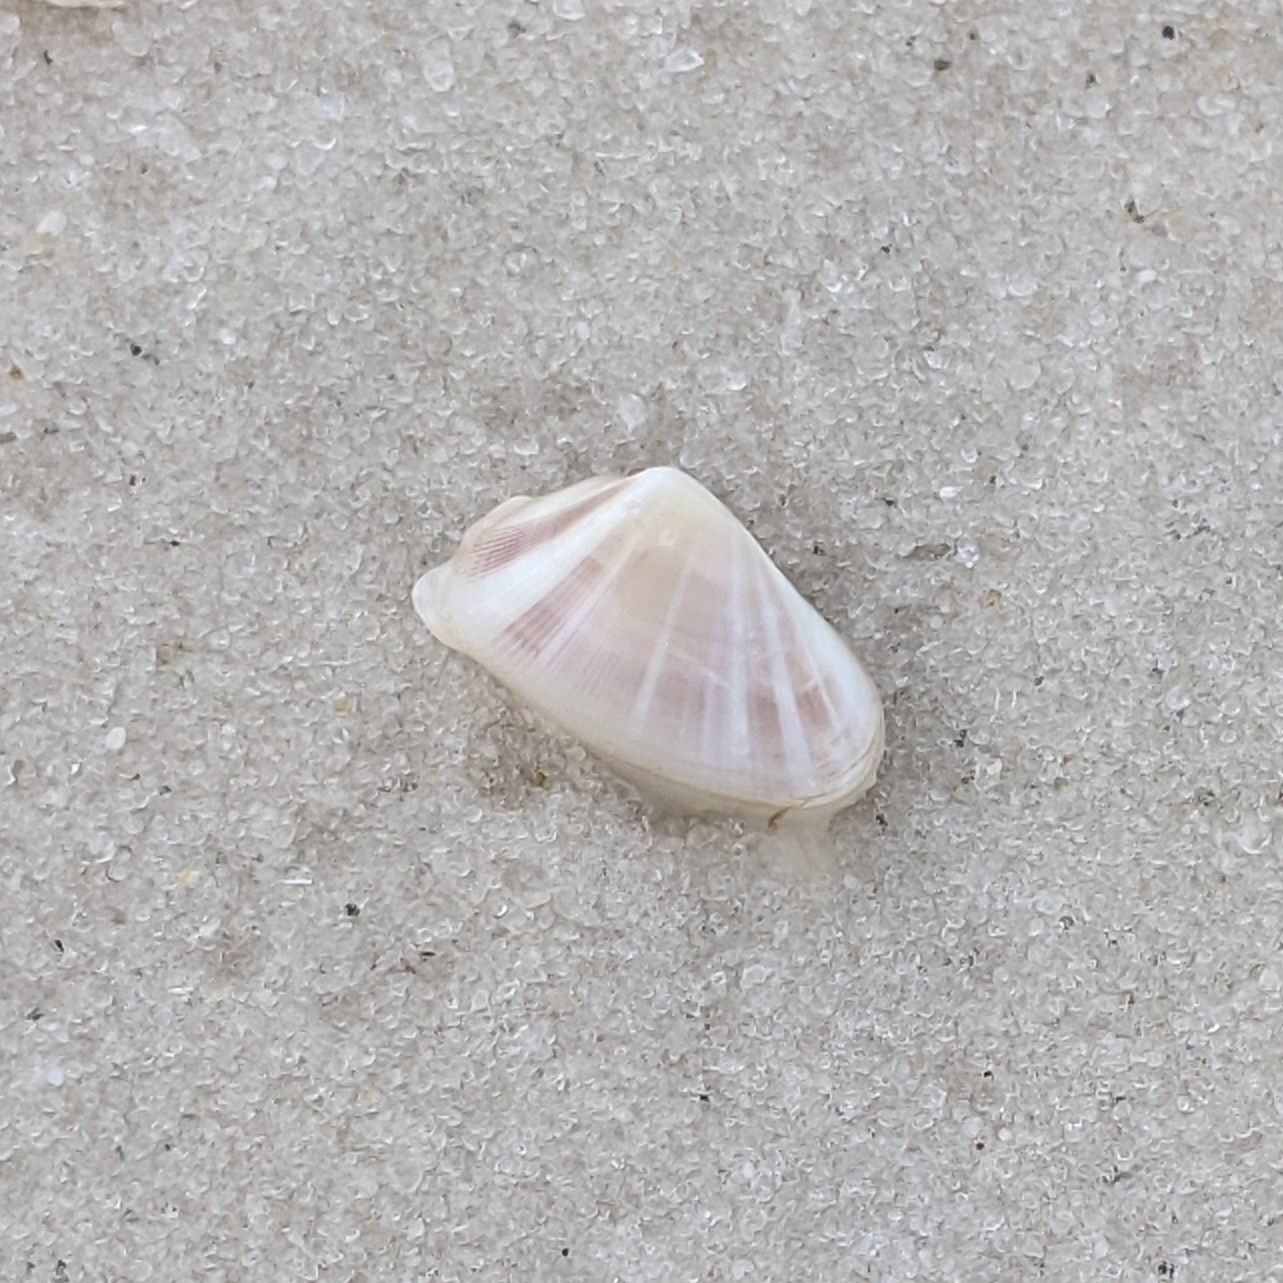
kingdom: Animalia
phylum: Mollusca
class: Bivalvia
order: Cardiida
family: Donacidae
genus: Donax
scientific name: Donax variabilis
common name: Butterfly shell
